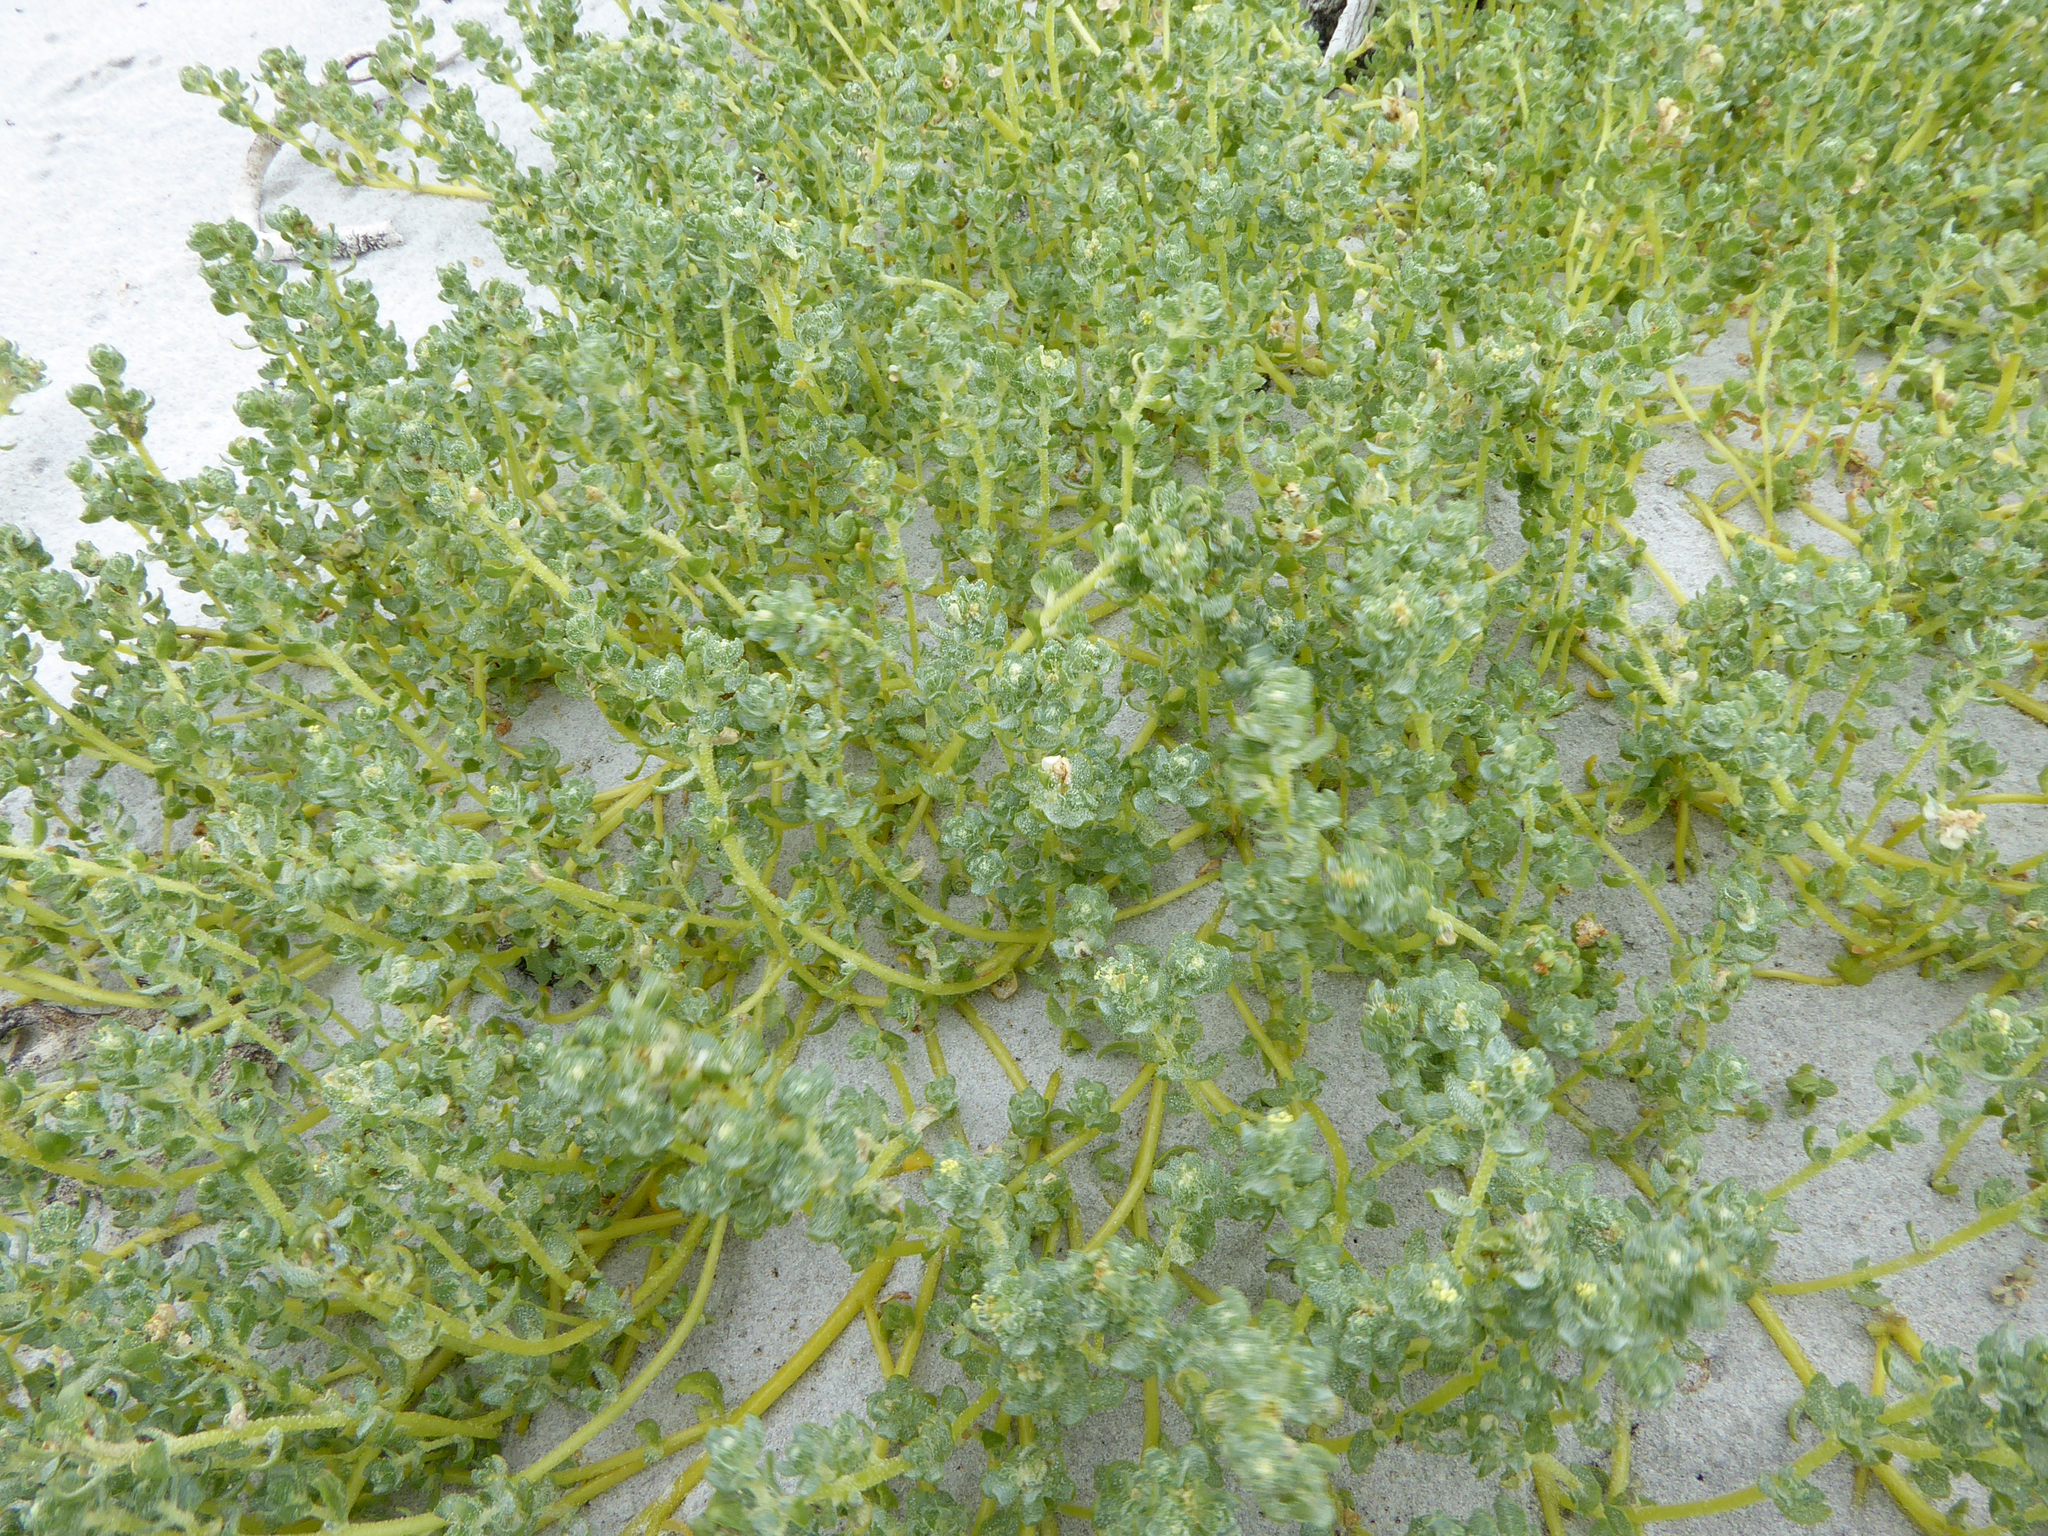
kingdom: Plantae
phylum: Tracheophyta
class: Magnoliopsida
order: Caryophyllales
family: Amaranthaceae
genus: Atriplex
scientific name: Atriplex billardierei
